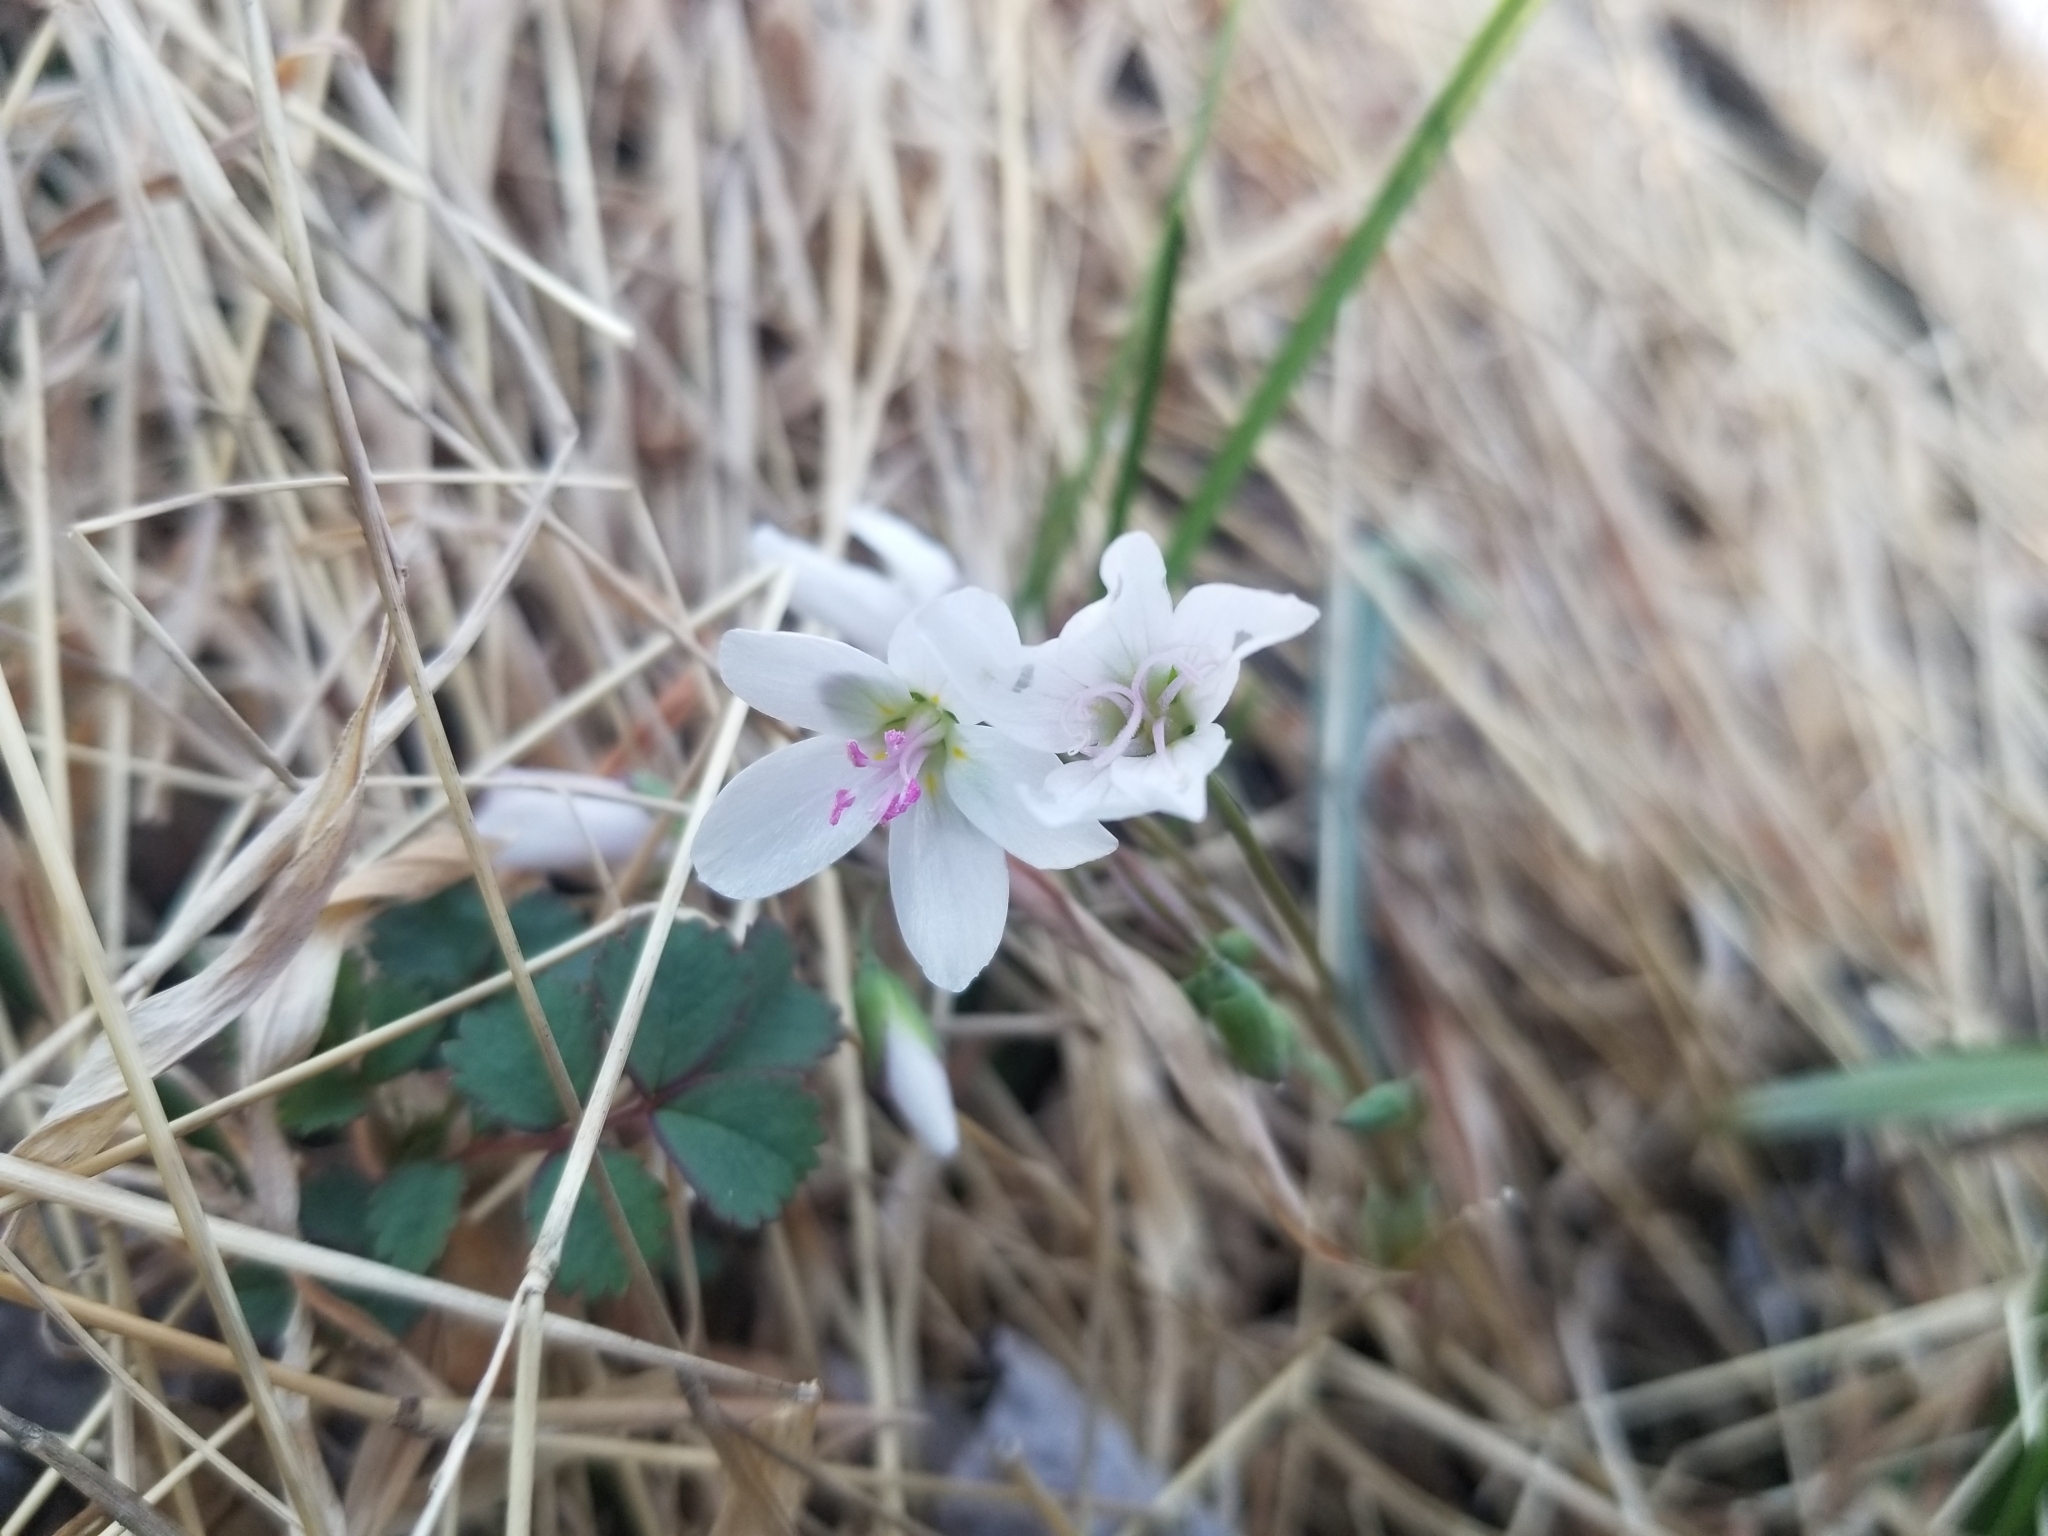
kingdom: Plantae
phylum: Tracheophyta
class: Magnoliopsida
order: Caryophyllales
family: Montiaceae
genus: Claytonia
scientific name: Claytonia virginica
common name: Virginia springbeauty
